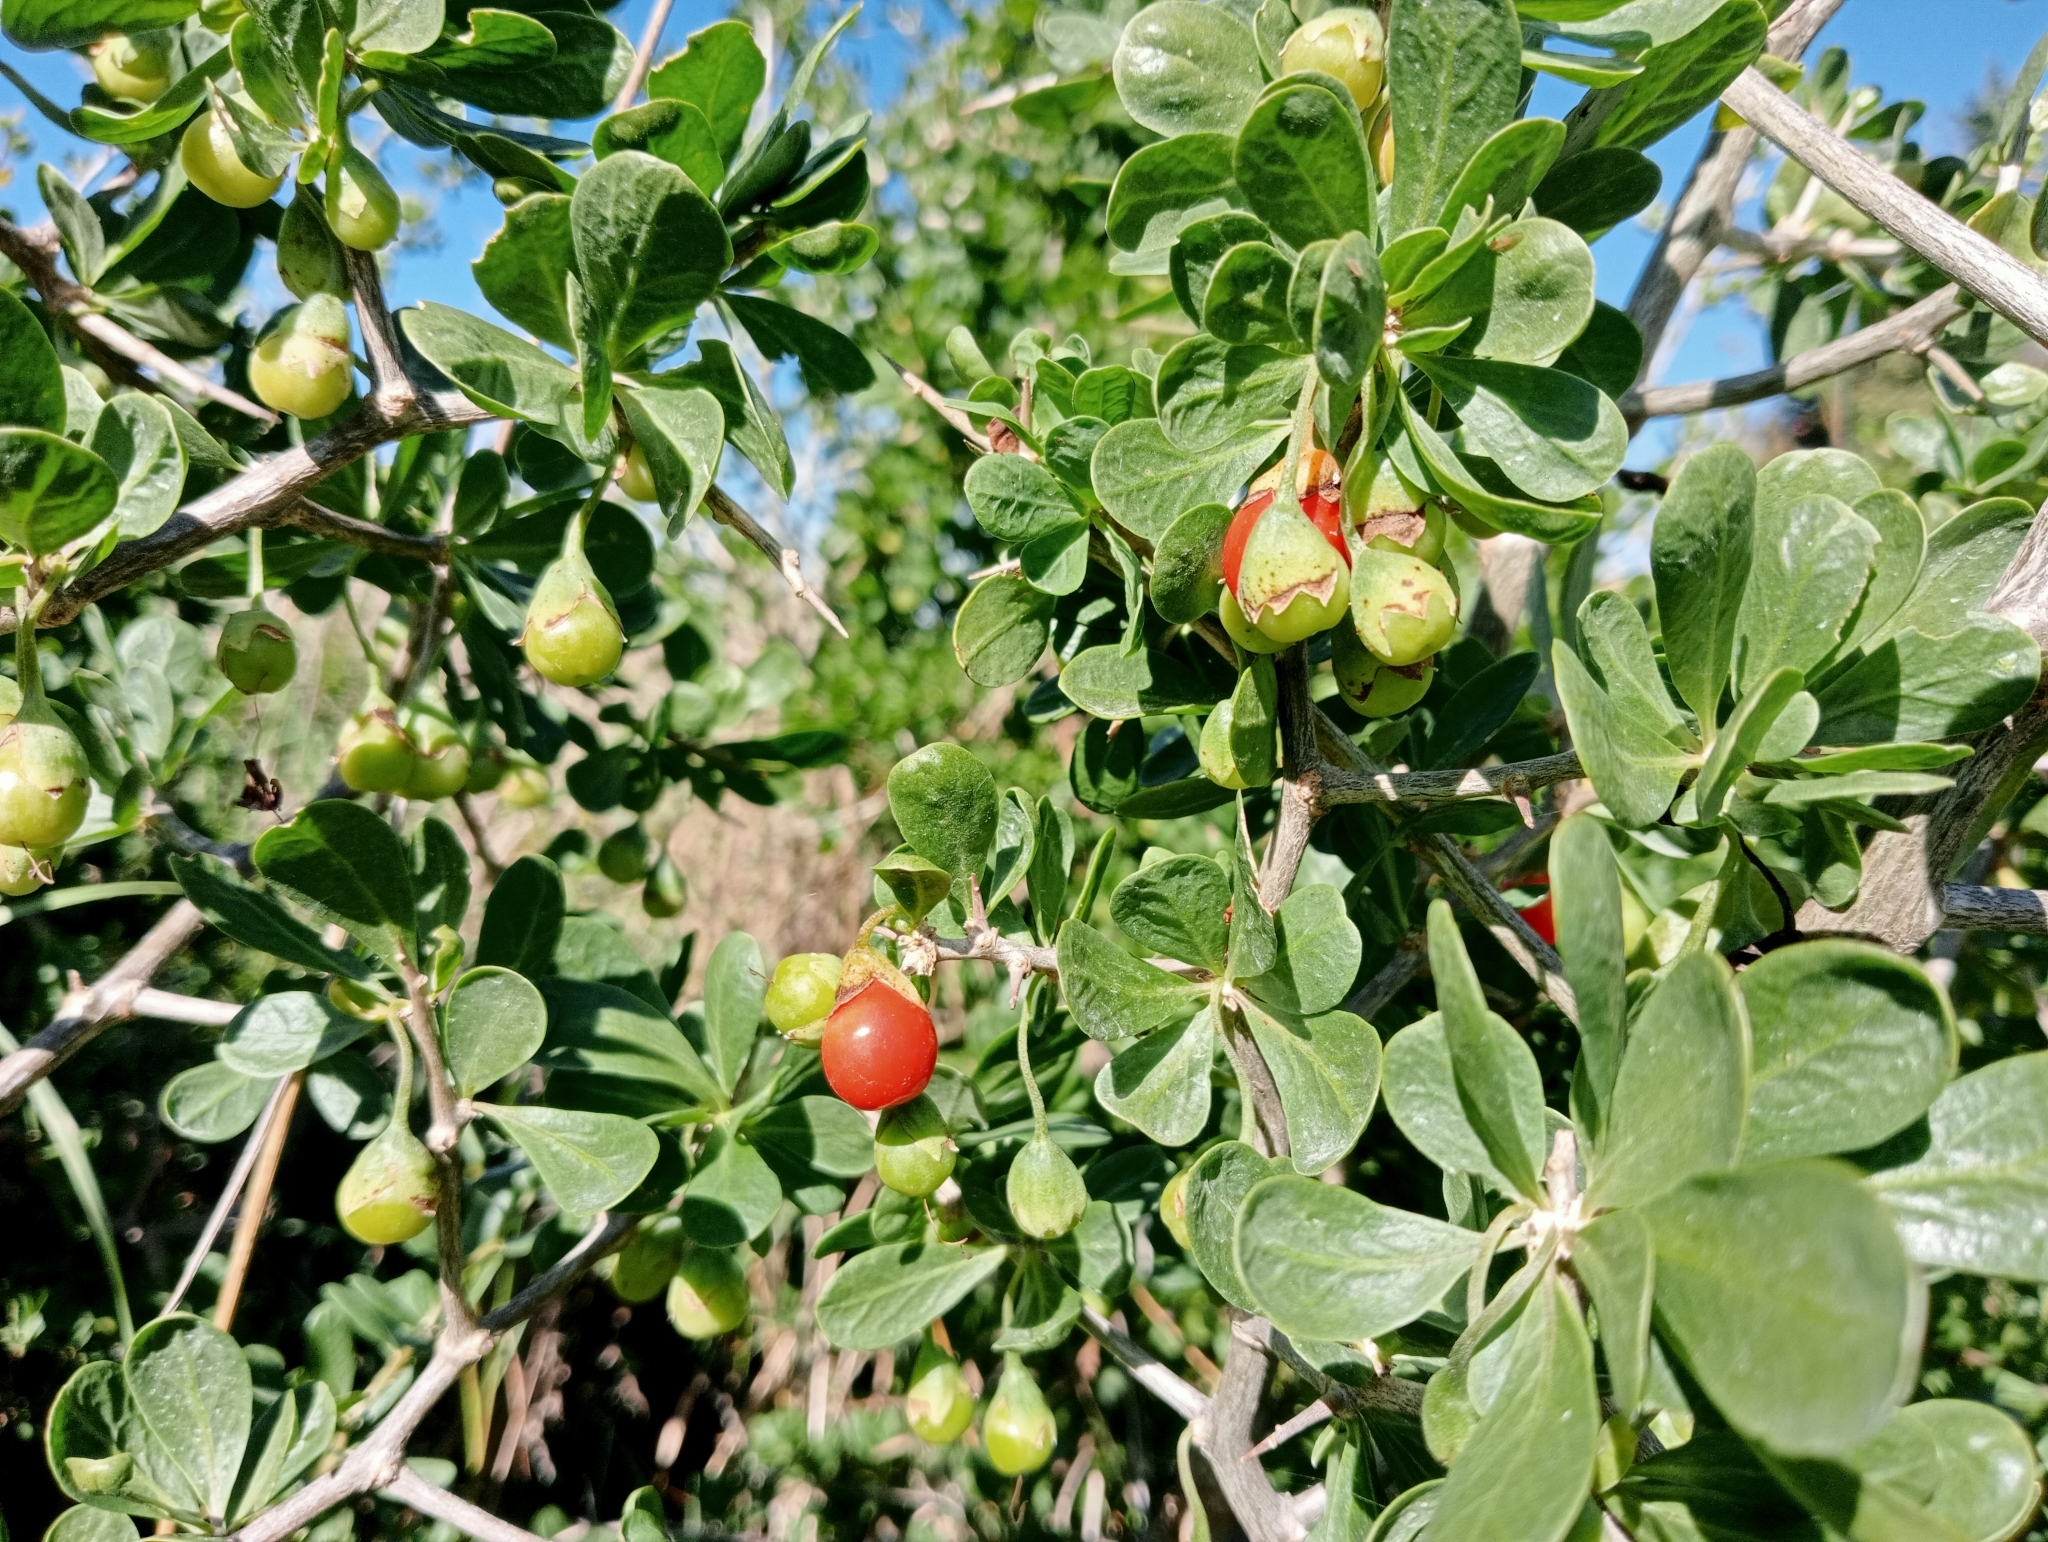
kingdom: Plantae
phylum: Tracheophyta
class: Magnoliopsida
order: Solanales
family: Solanaceae
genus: Lycium
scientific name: Lycium ferocissimum
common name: African boxthorn
